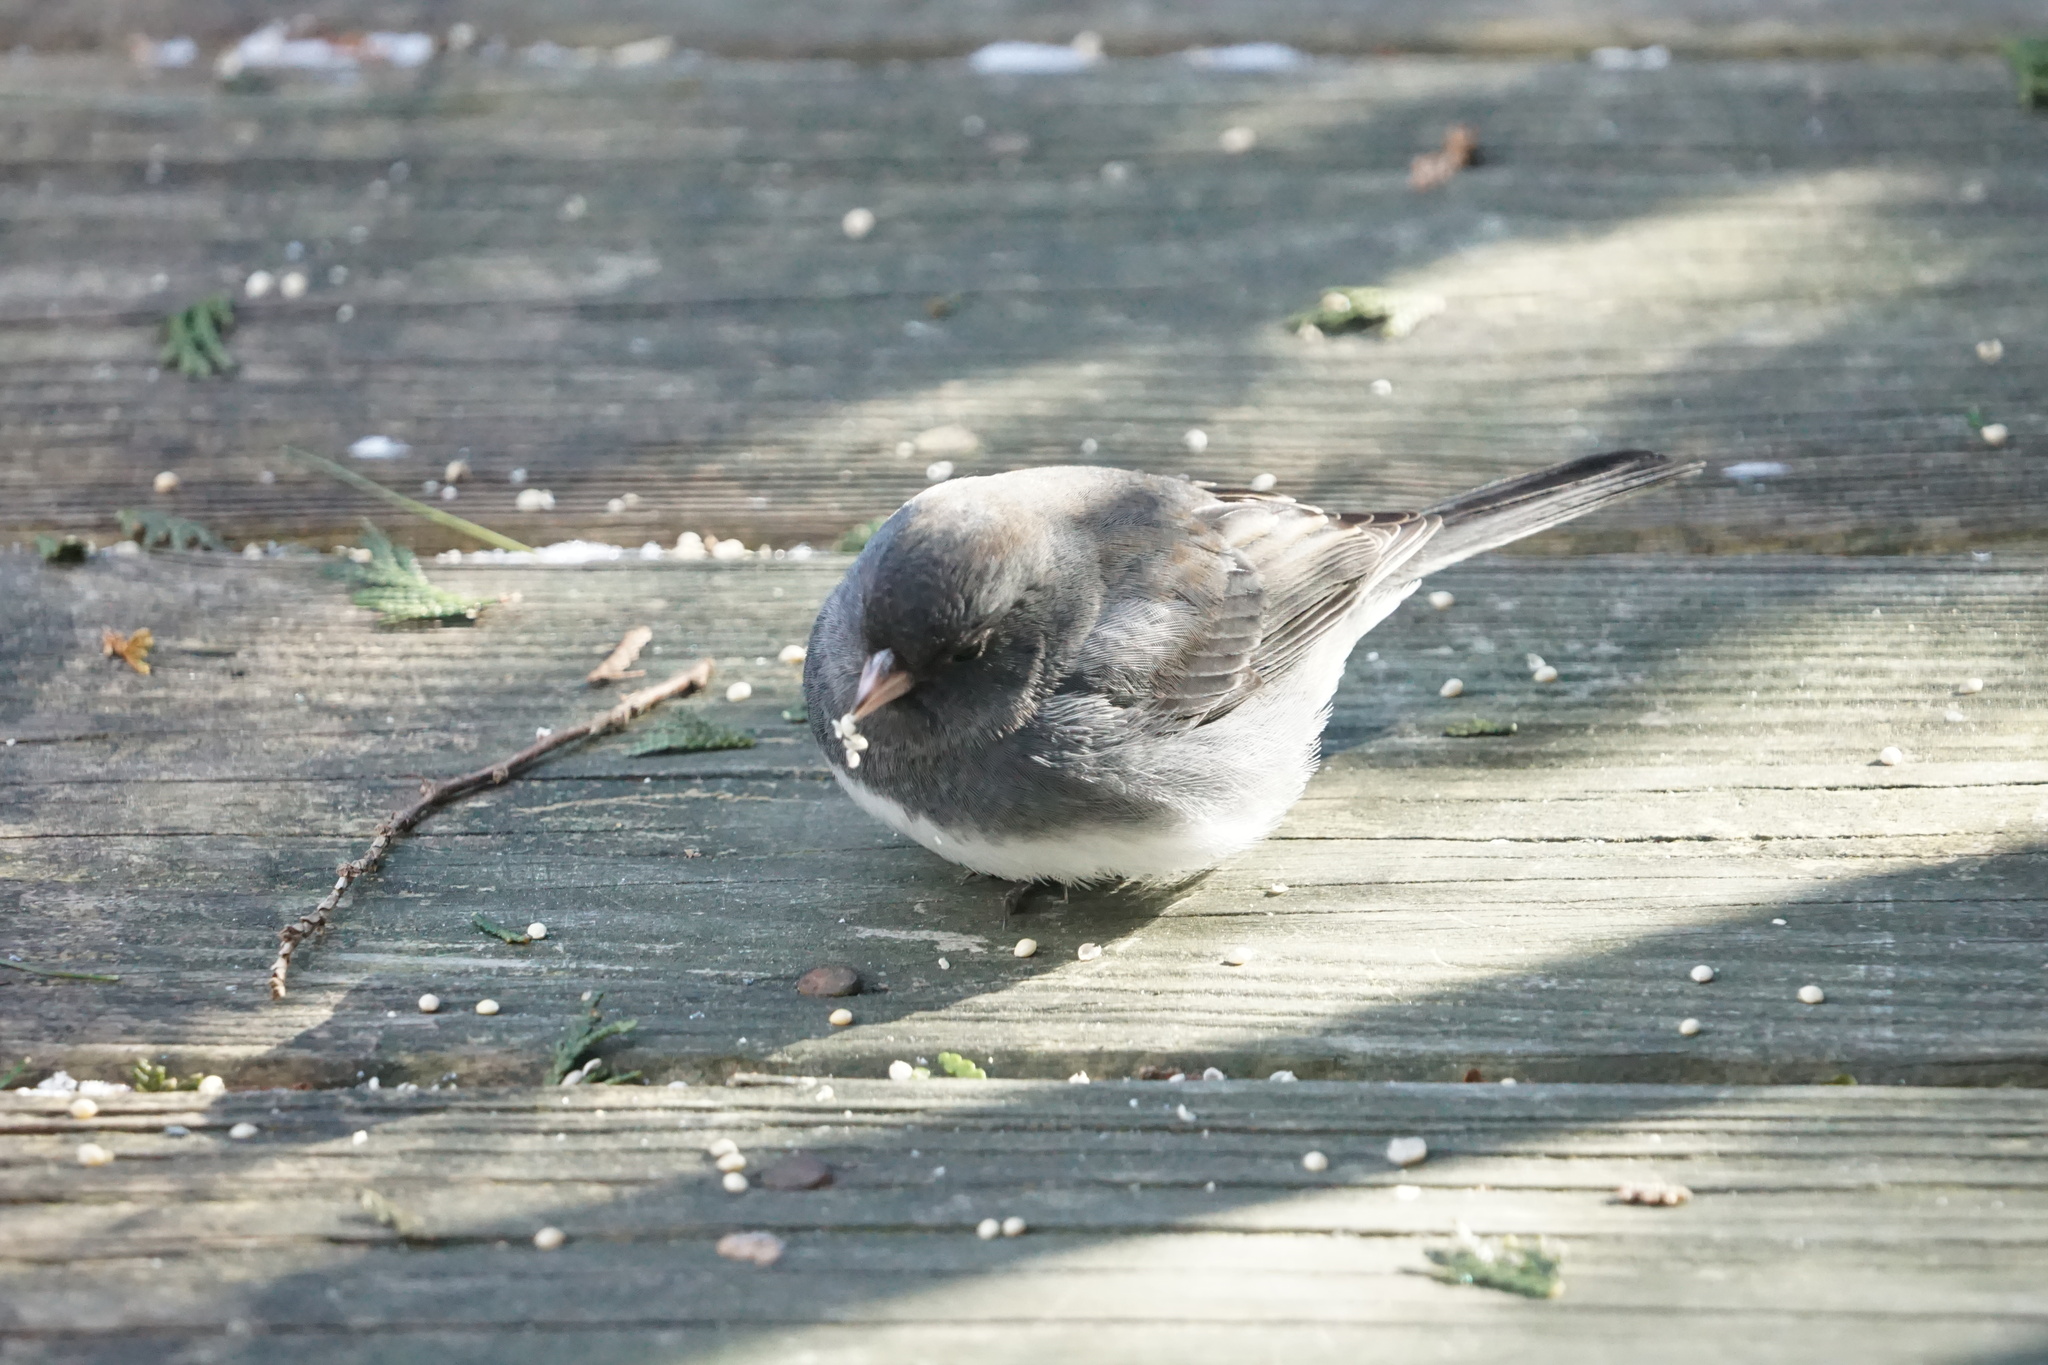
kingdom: Animalia
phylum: Chordata
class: Aves
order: Passeriformes
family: Passerellidae
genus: Junco
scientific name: Junco hyemalis
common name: Dark-eyed junco
